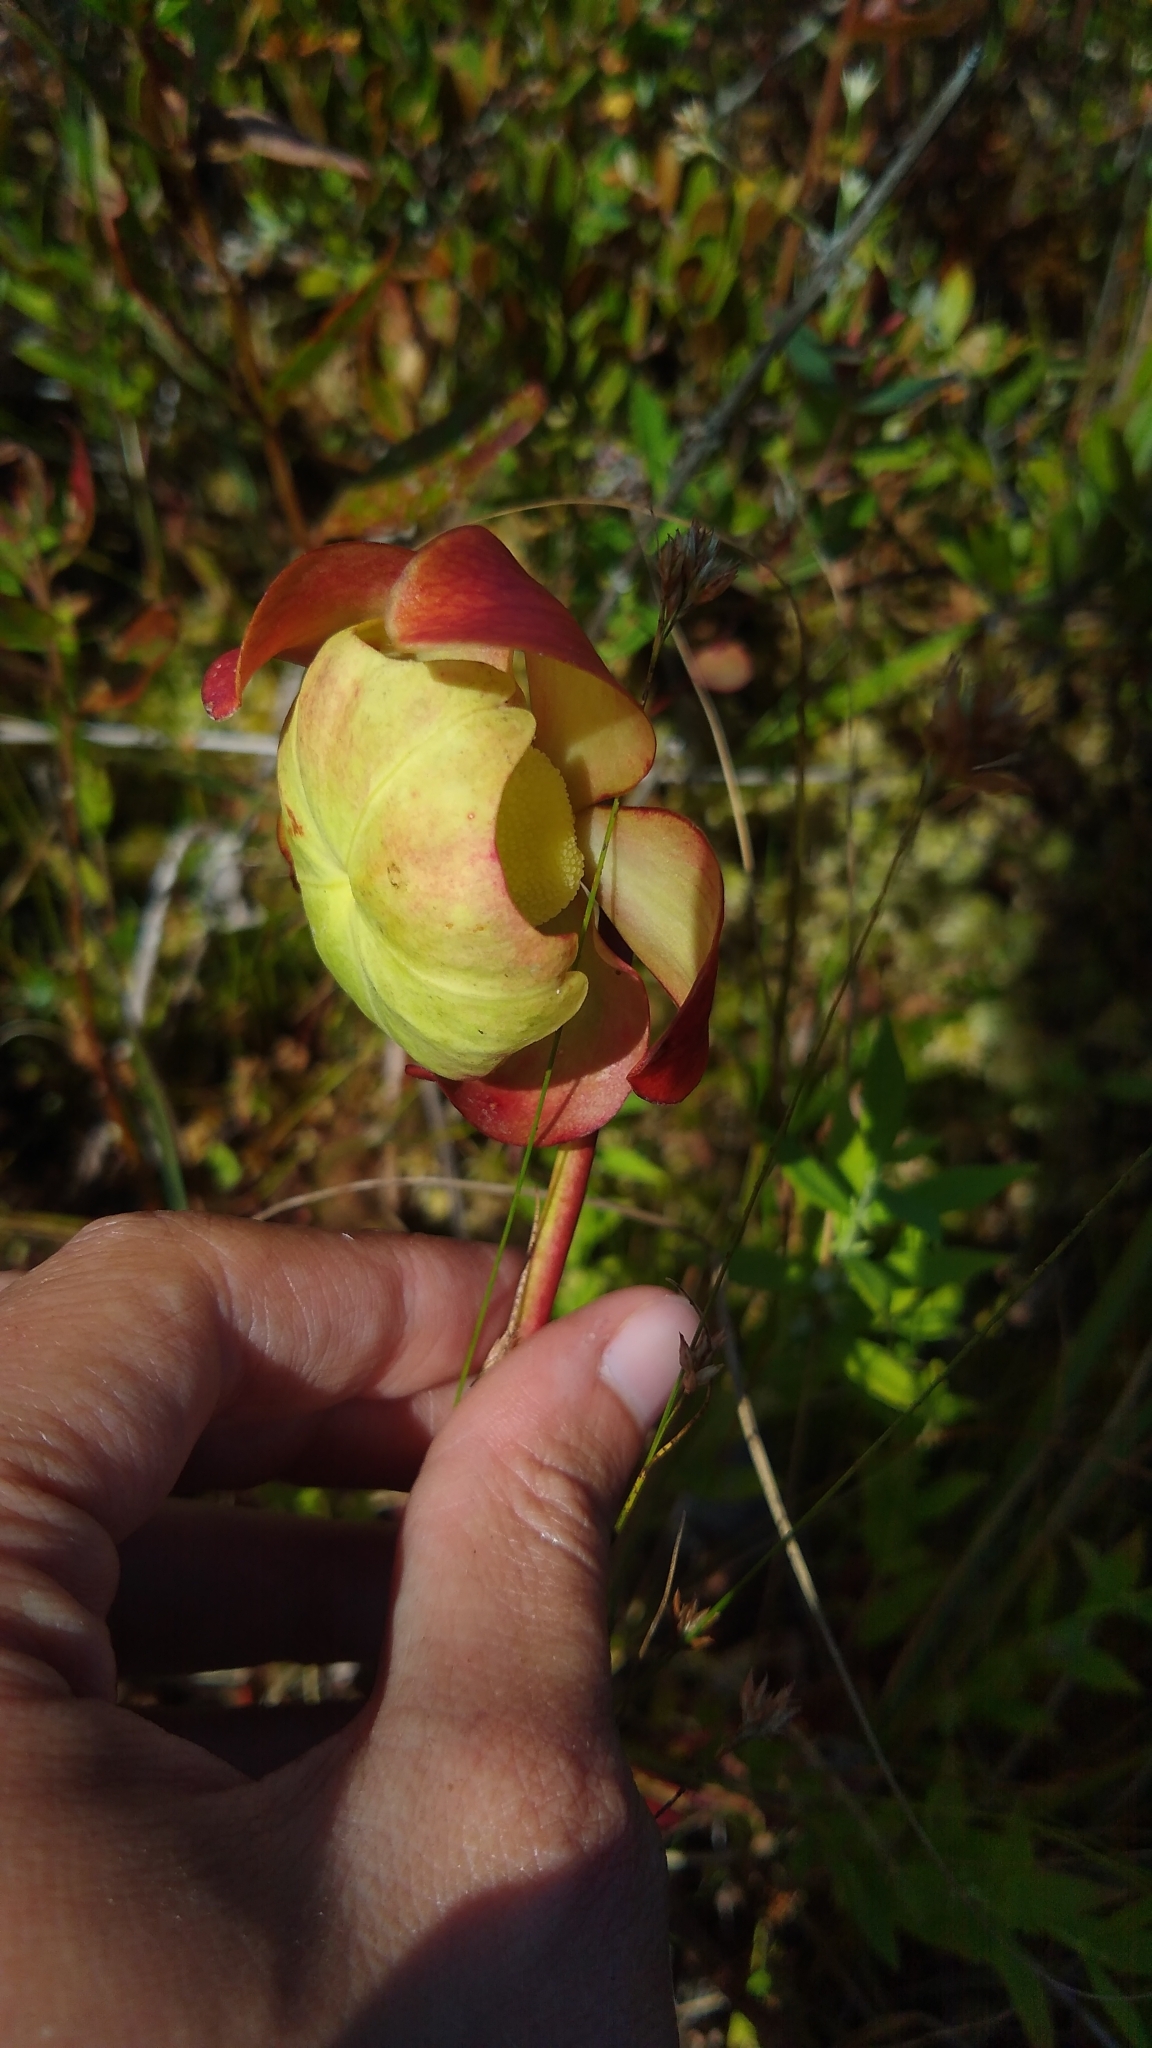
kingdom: Plantae
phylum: Tracheophyta
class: Magnoliopsida
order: Ericales
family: Sarraceniaceae
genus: Sarracenia
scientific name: Sarracenia purpurea
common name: Pitcherplant
